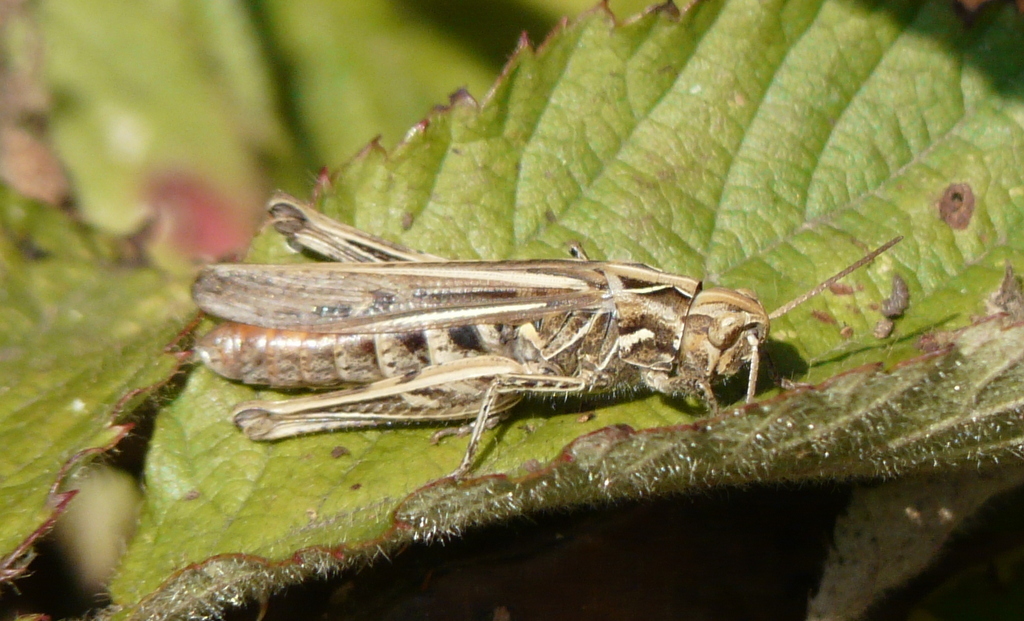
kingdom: Animalia
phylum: Arthropoda
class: Insecta
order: Orthoptera
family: Acrididae
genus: Chorthippus
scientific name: Chorthippus brunneus
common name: Field grasshopper
